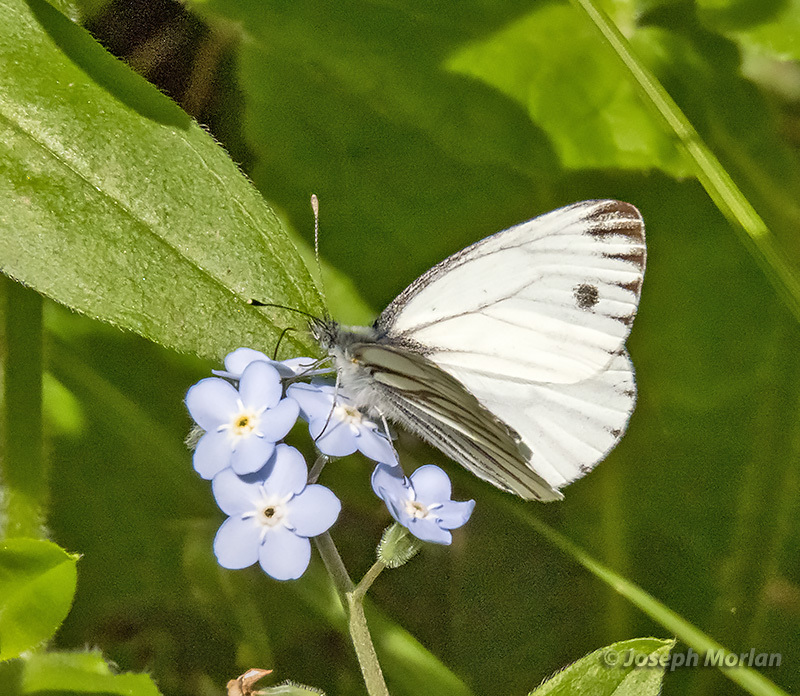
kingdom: Animalia
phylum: Arthropoda
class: Insecta
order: Lepidoptera
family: Pieridae
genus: Pieris
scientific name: Pieris marginalis
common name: Margined white
